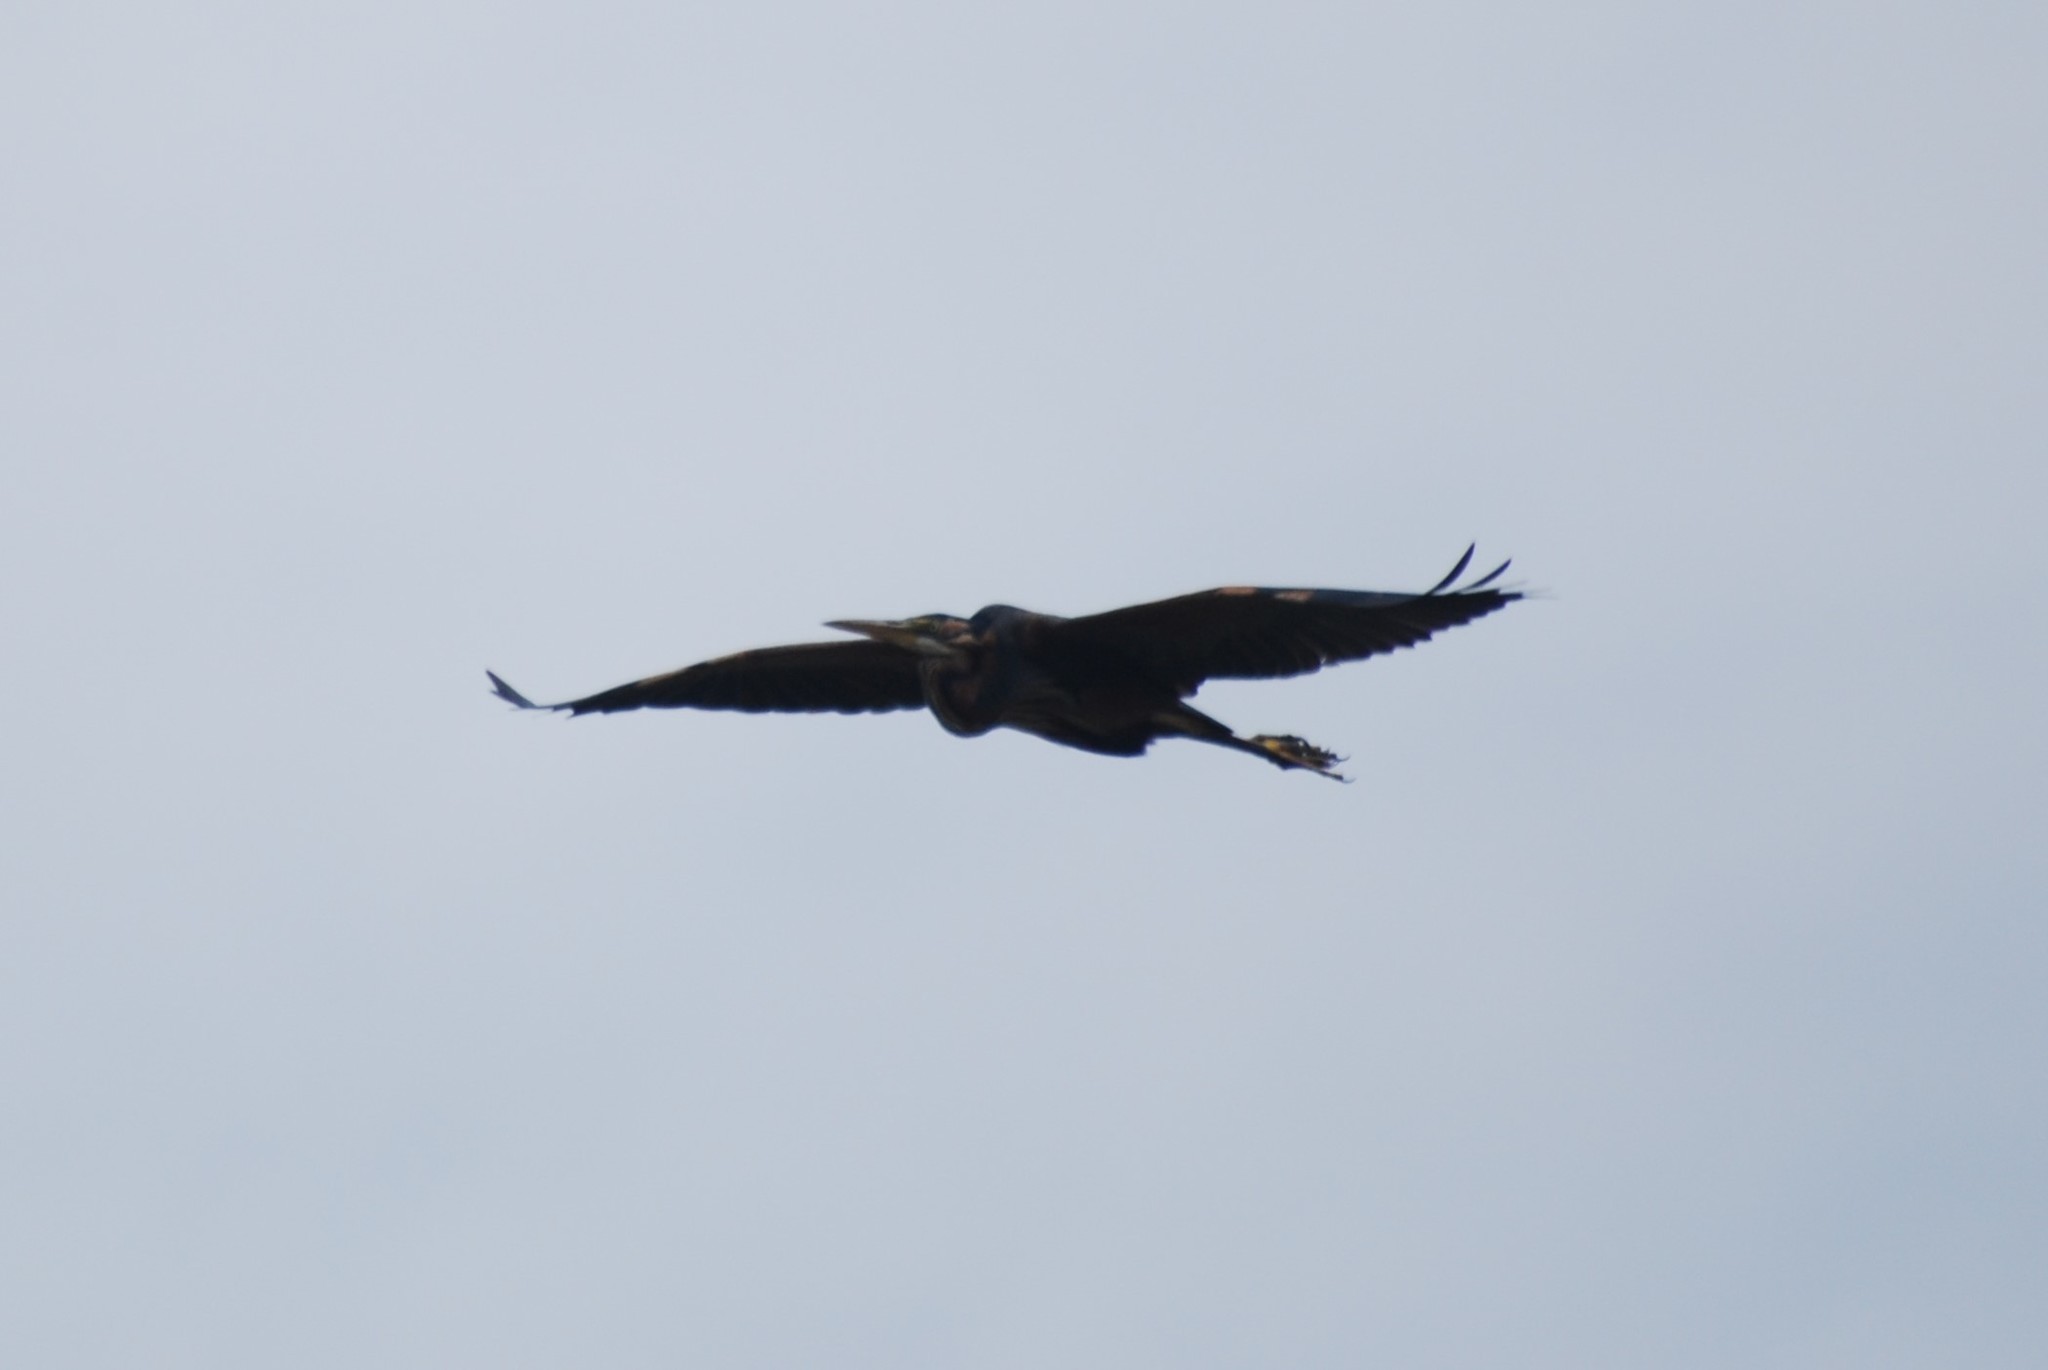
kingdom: Animalia
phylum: Chordata
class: Aves
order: Pelecaniformes
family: Ardeidae
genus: Ardea
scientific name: Ardea purpurea
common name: Purple heron
